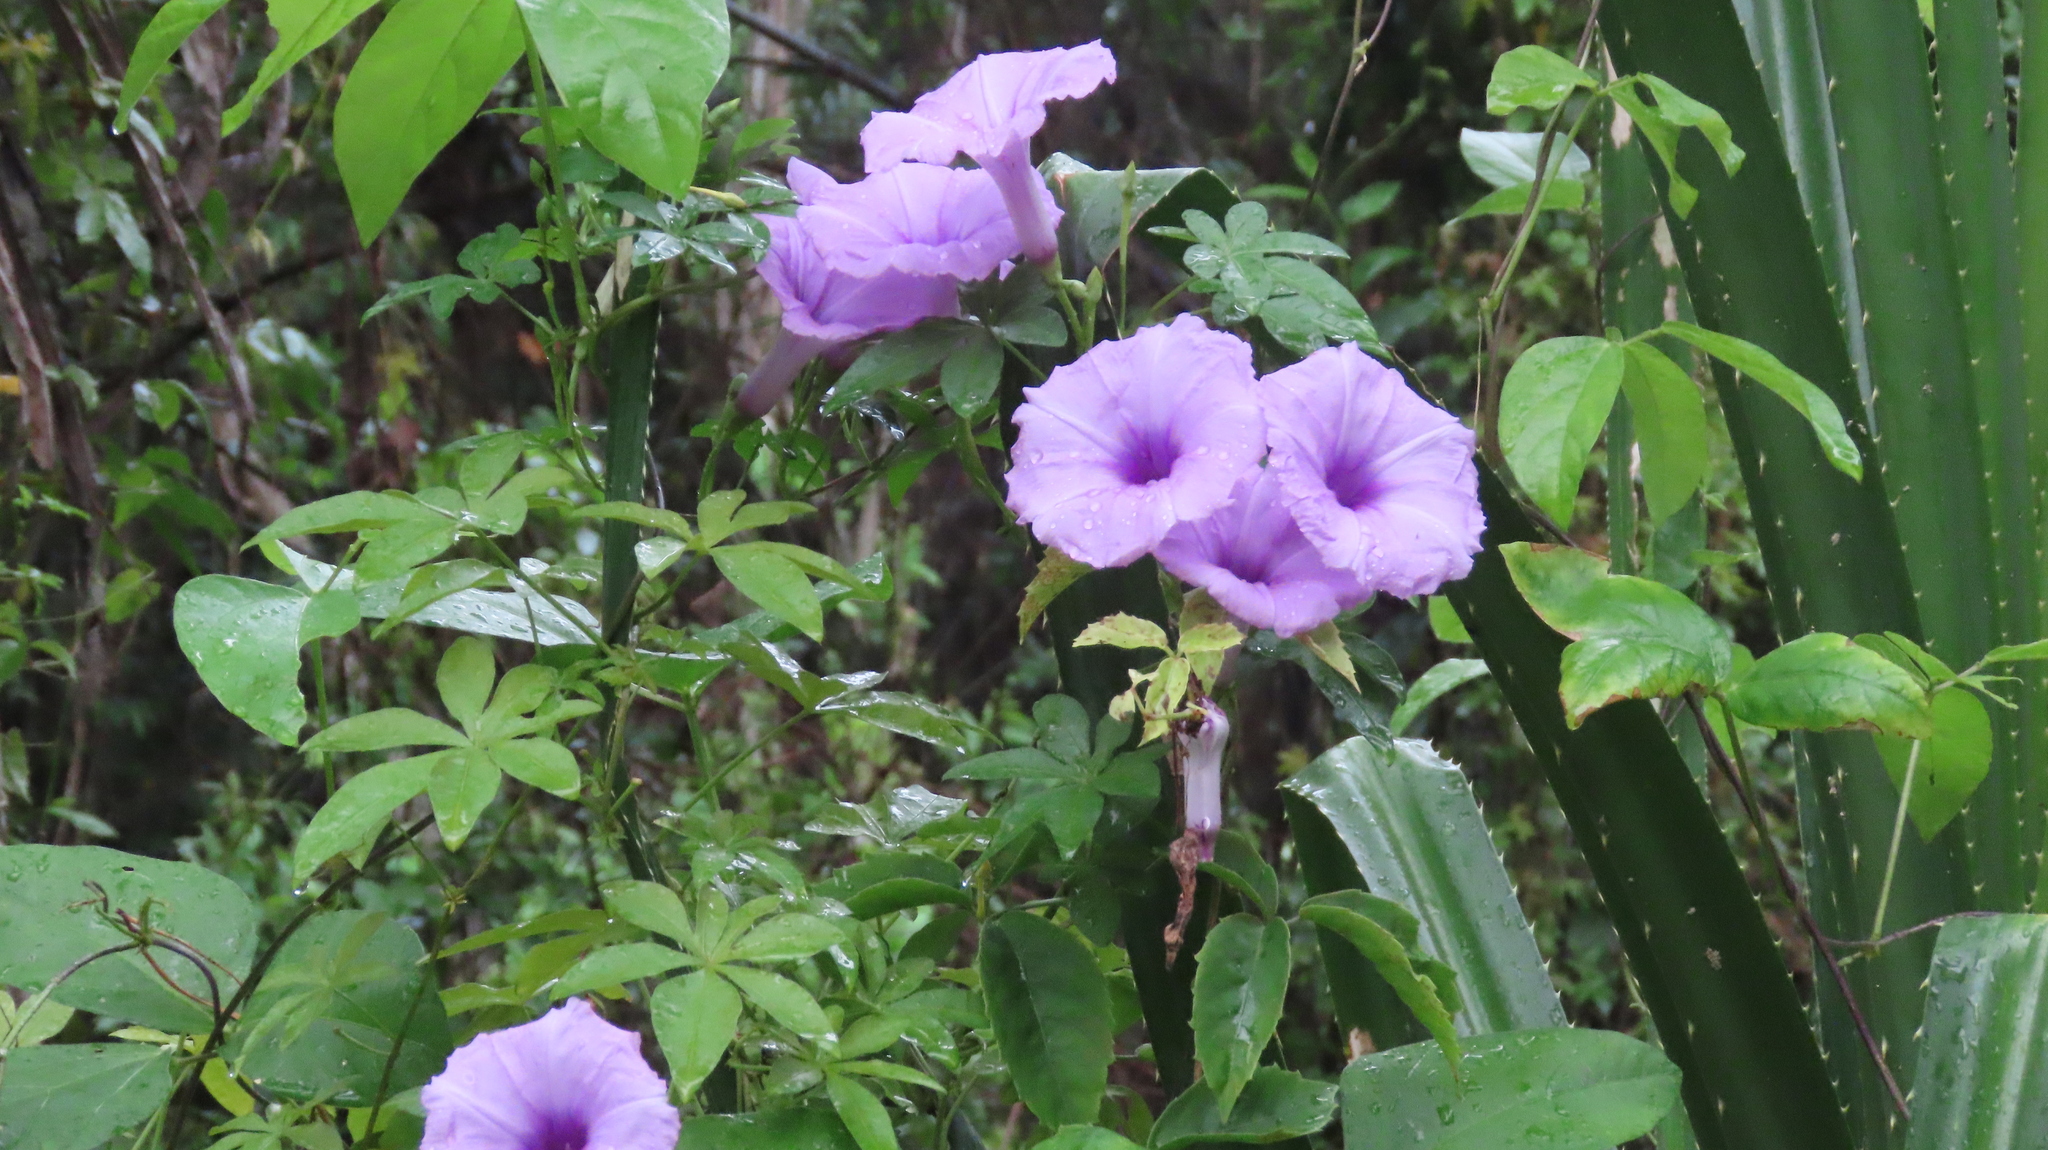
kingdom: Plantae
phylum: Tracheophyta
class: Magnoliopsida
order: Solanales
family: Convolvulaceae
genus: Ipomoea
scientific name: Ipomoea cairica
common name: Mile a minute vine
